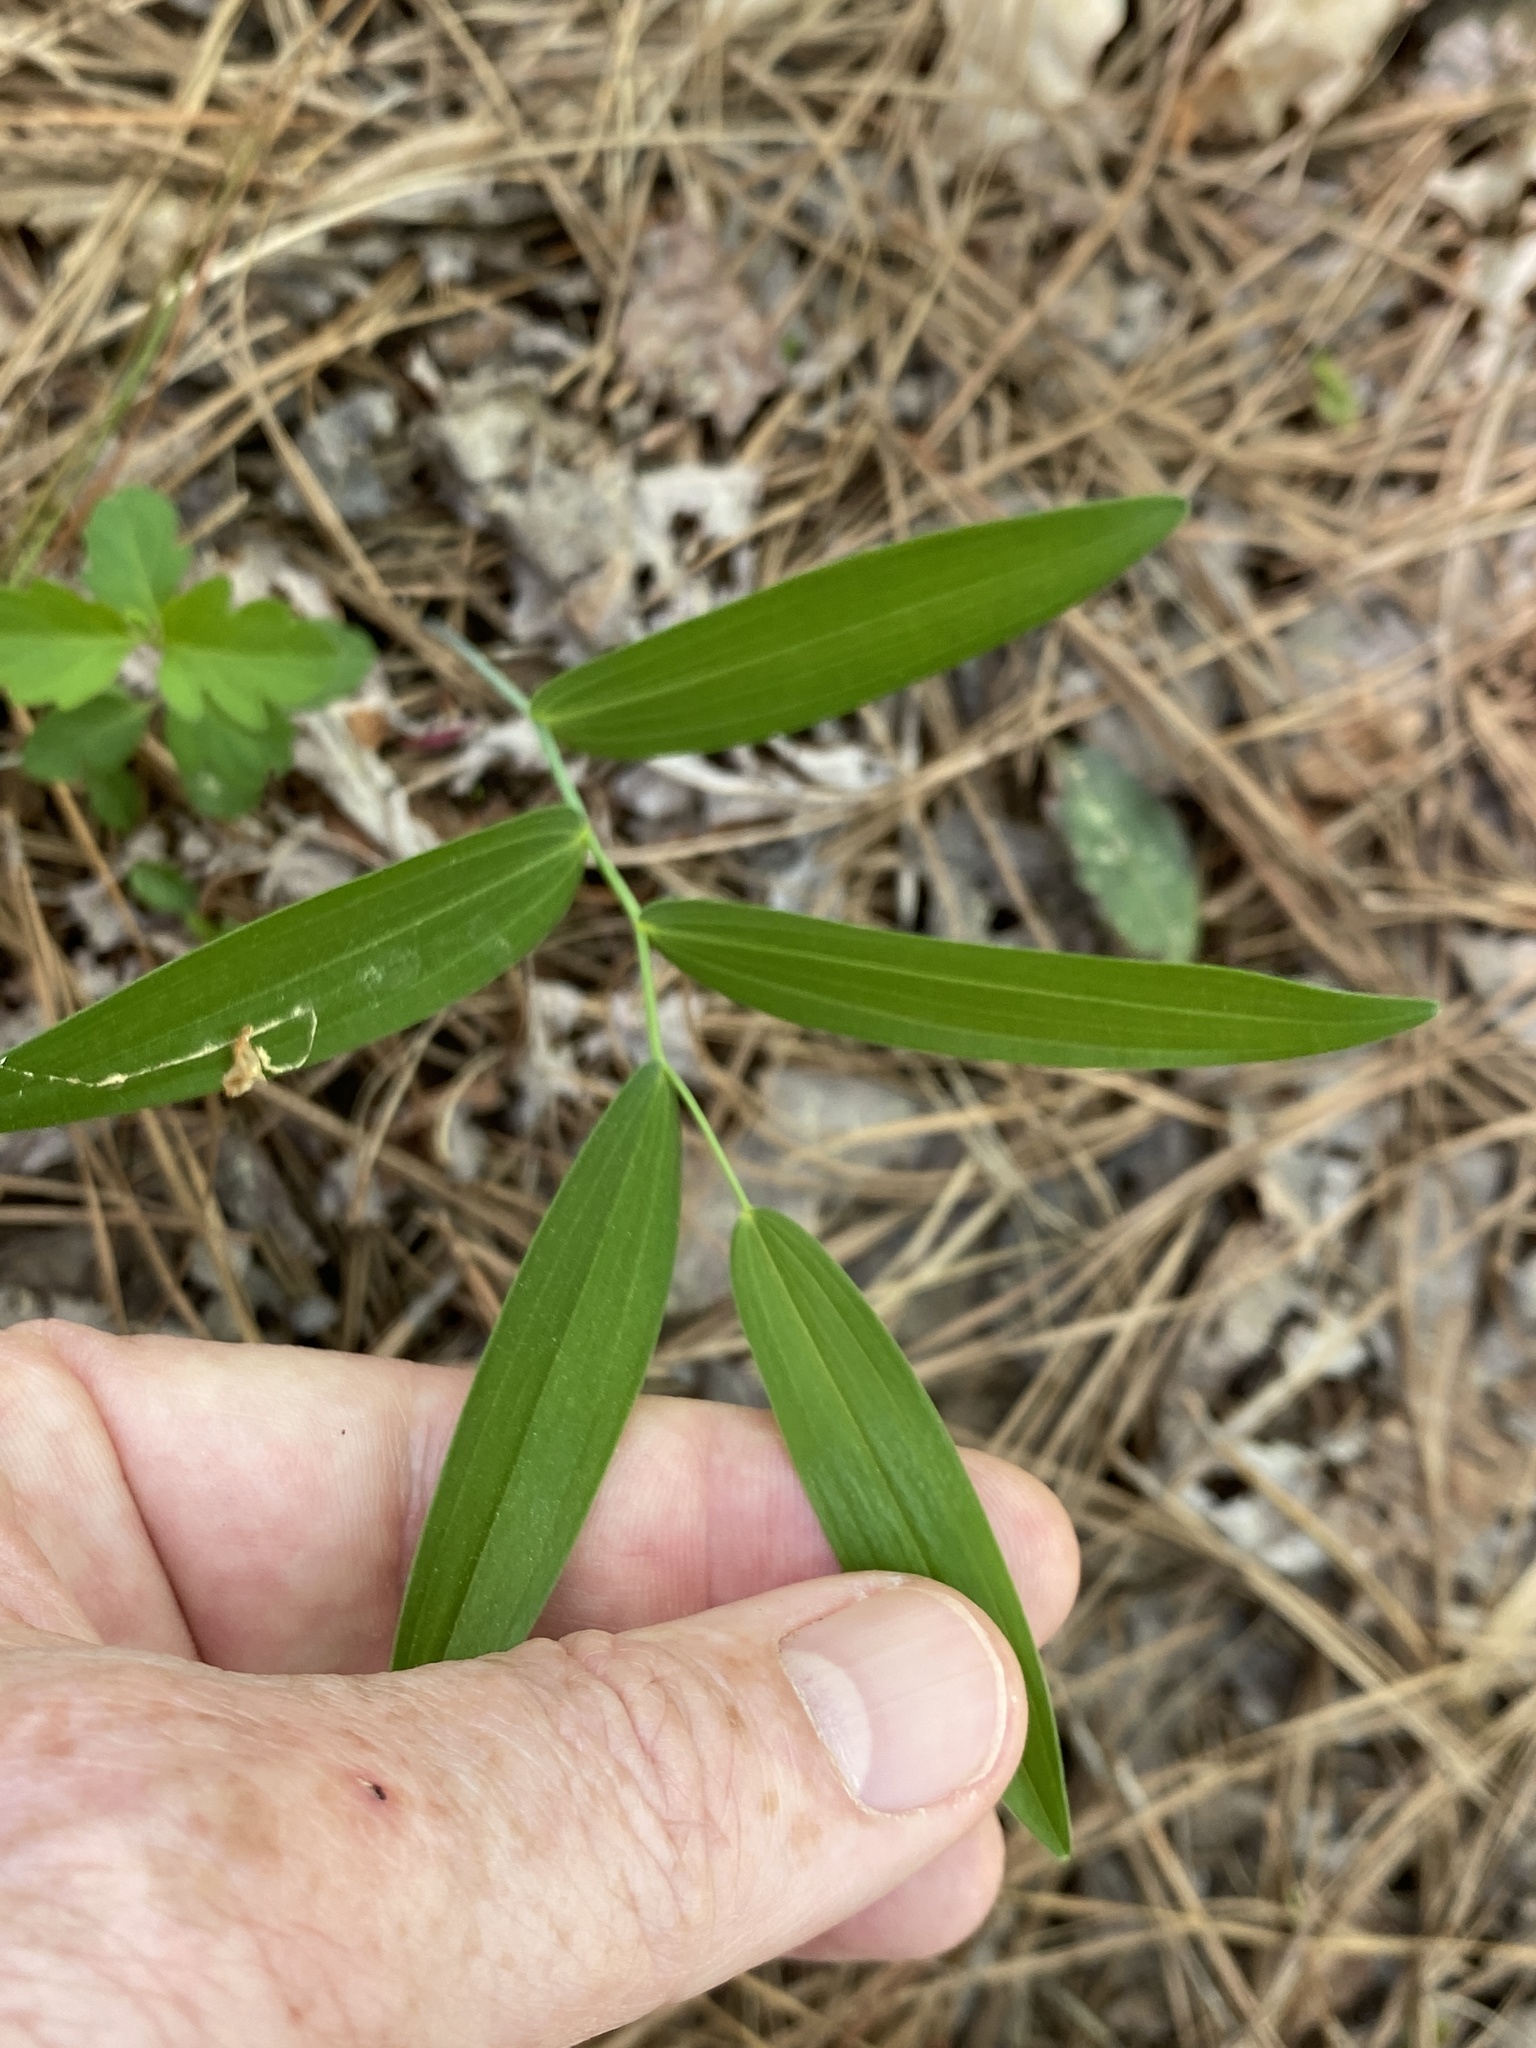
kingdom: Plantae
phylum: Tracheophyta
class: Liliopsida
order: Asparagales
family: Asparagaceae
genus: Polygonatum
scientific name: Polygonatum biflorum
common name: American solomon's-seal
